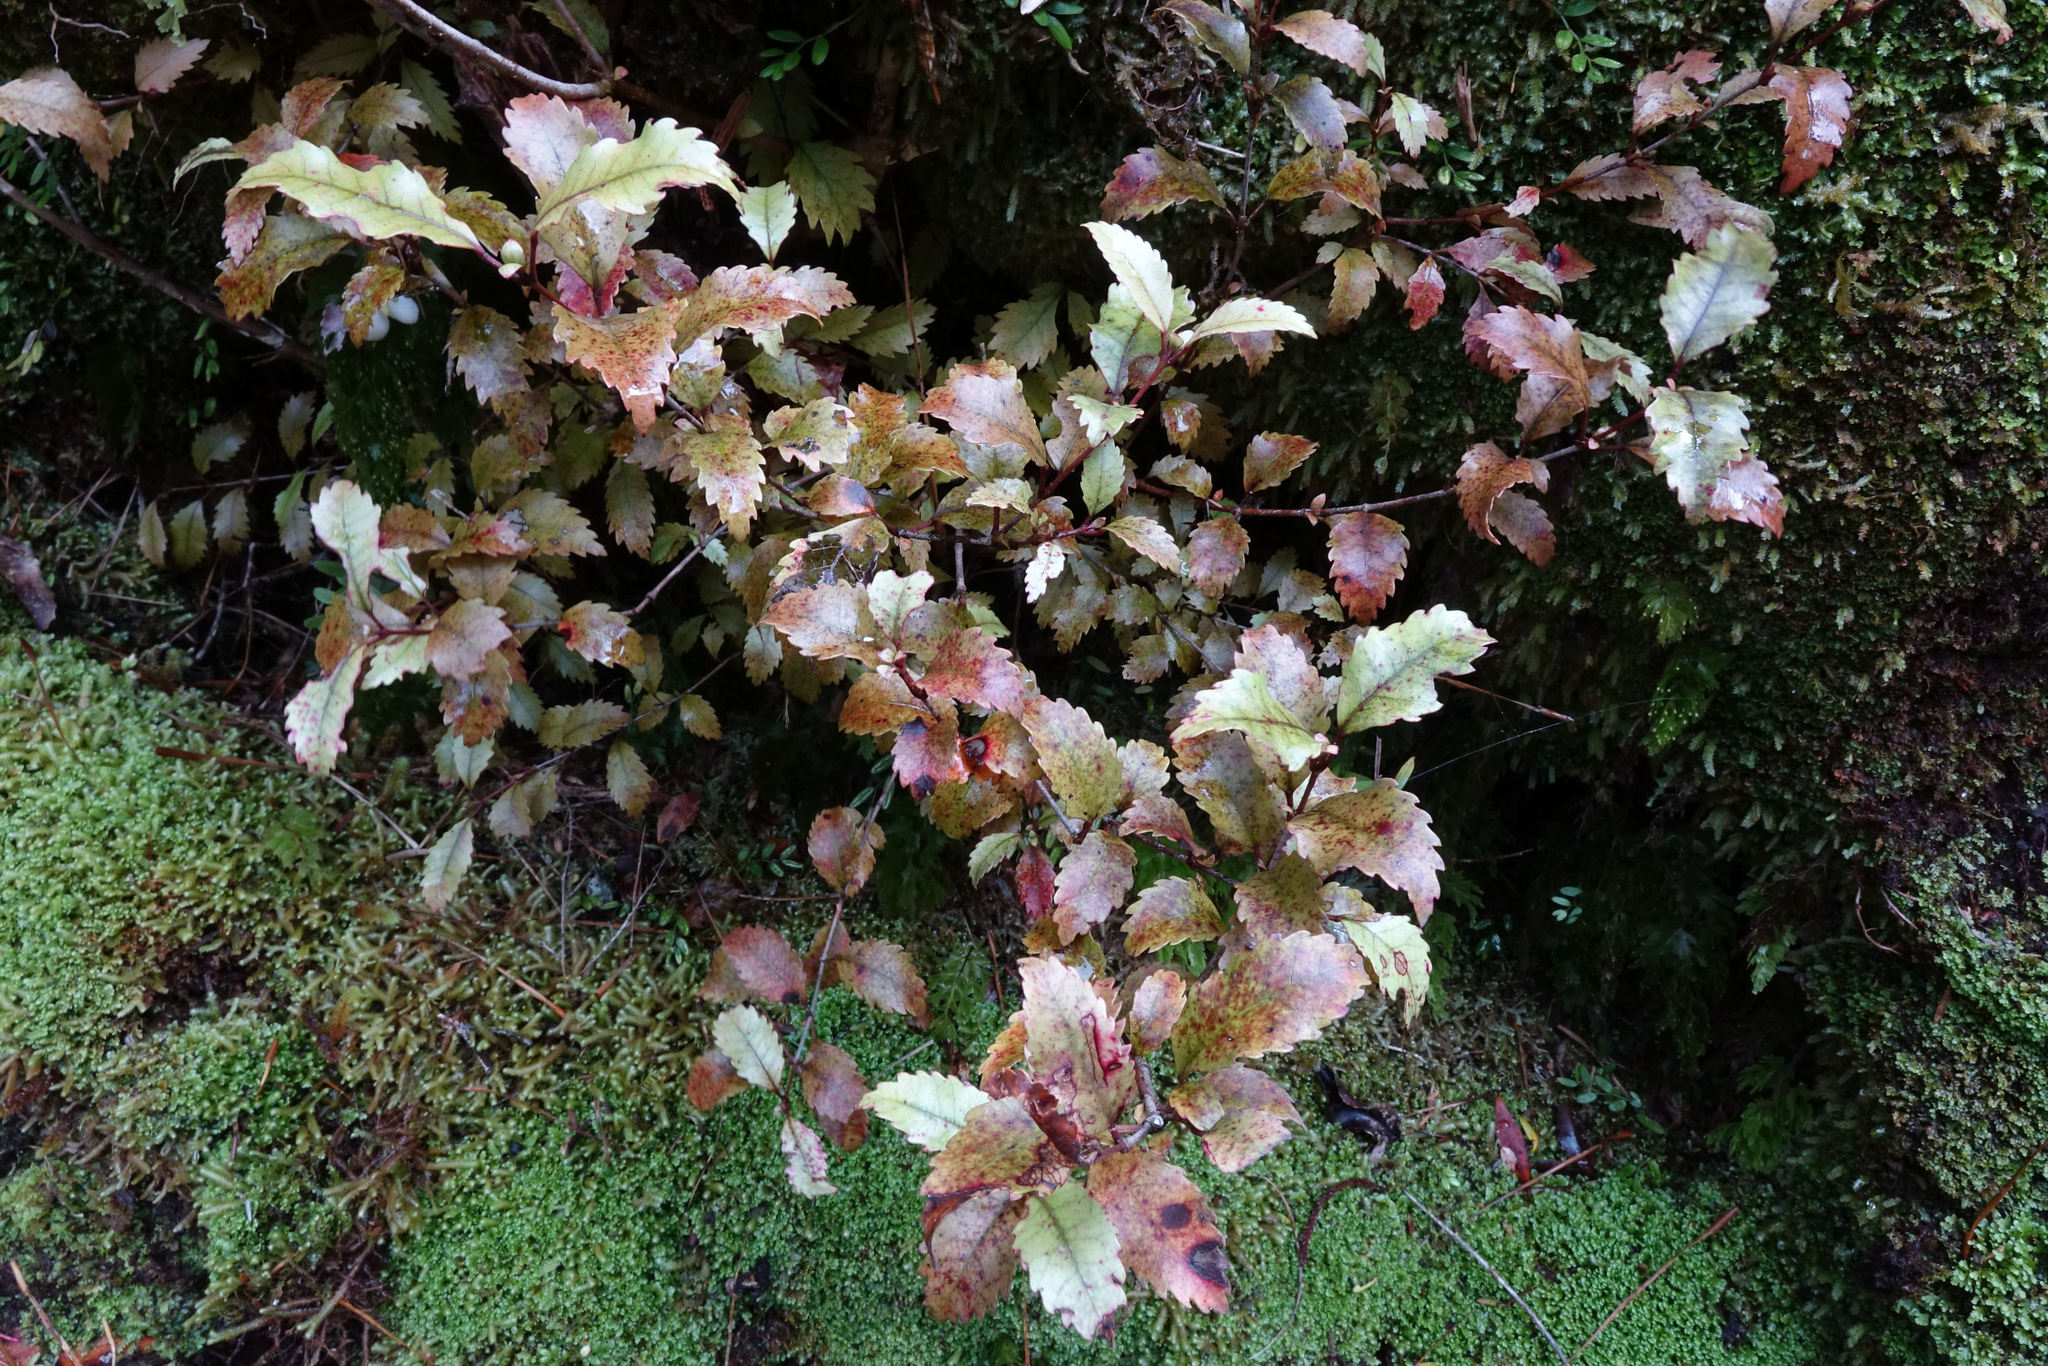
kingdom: Plantae
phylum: Tracheophyta
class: Magnoliopsida
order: Oxalidales
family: Cunoniaceae
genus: Pterophylla
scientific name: Pterophylla racemosa
